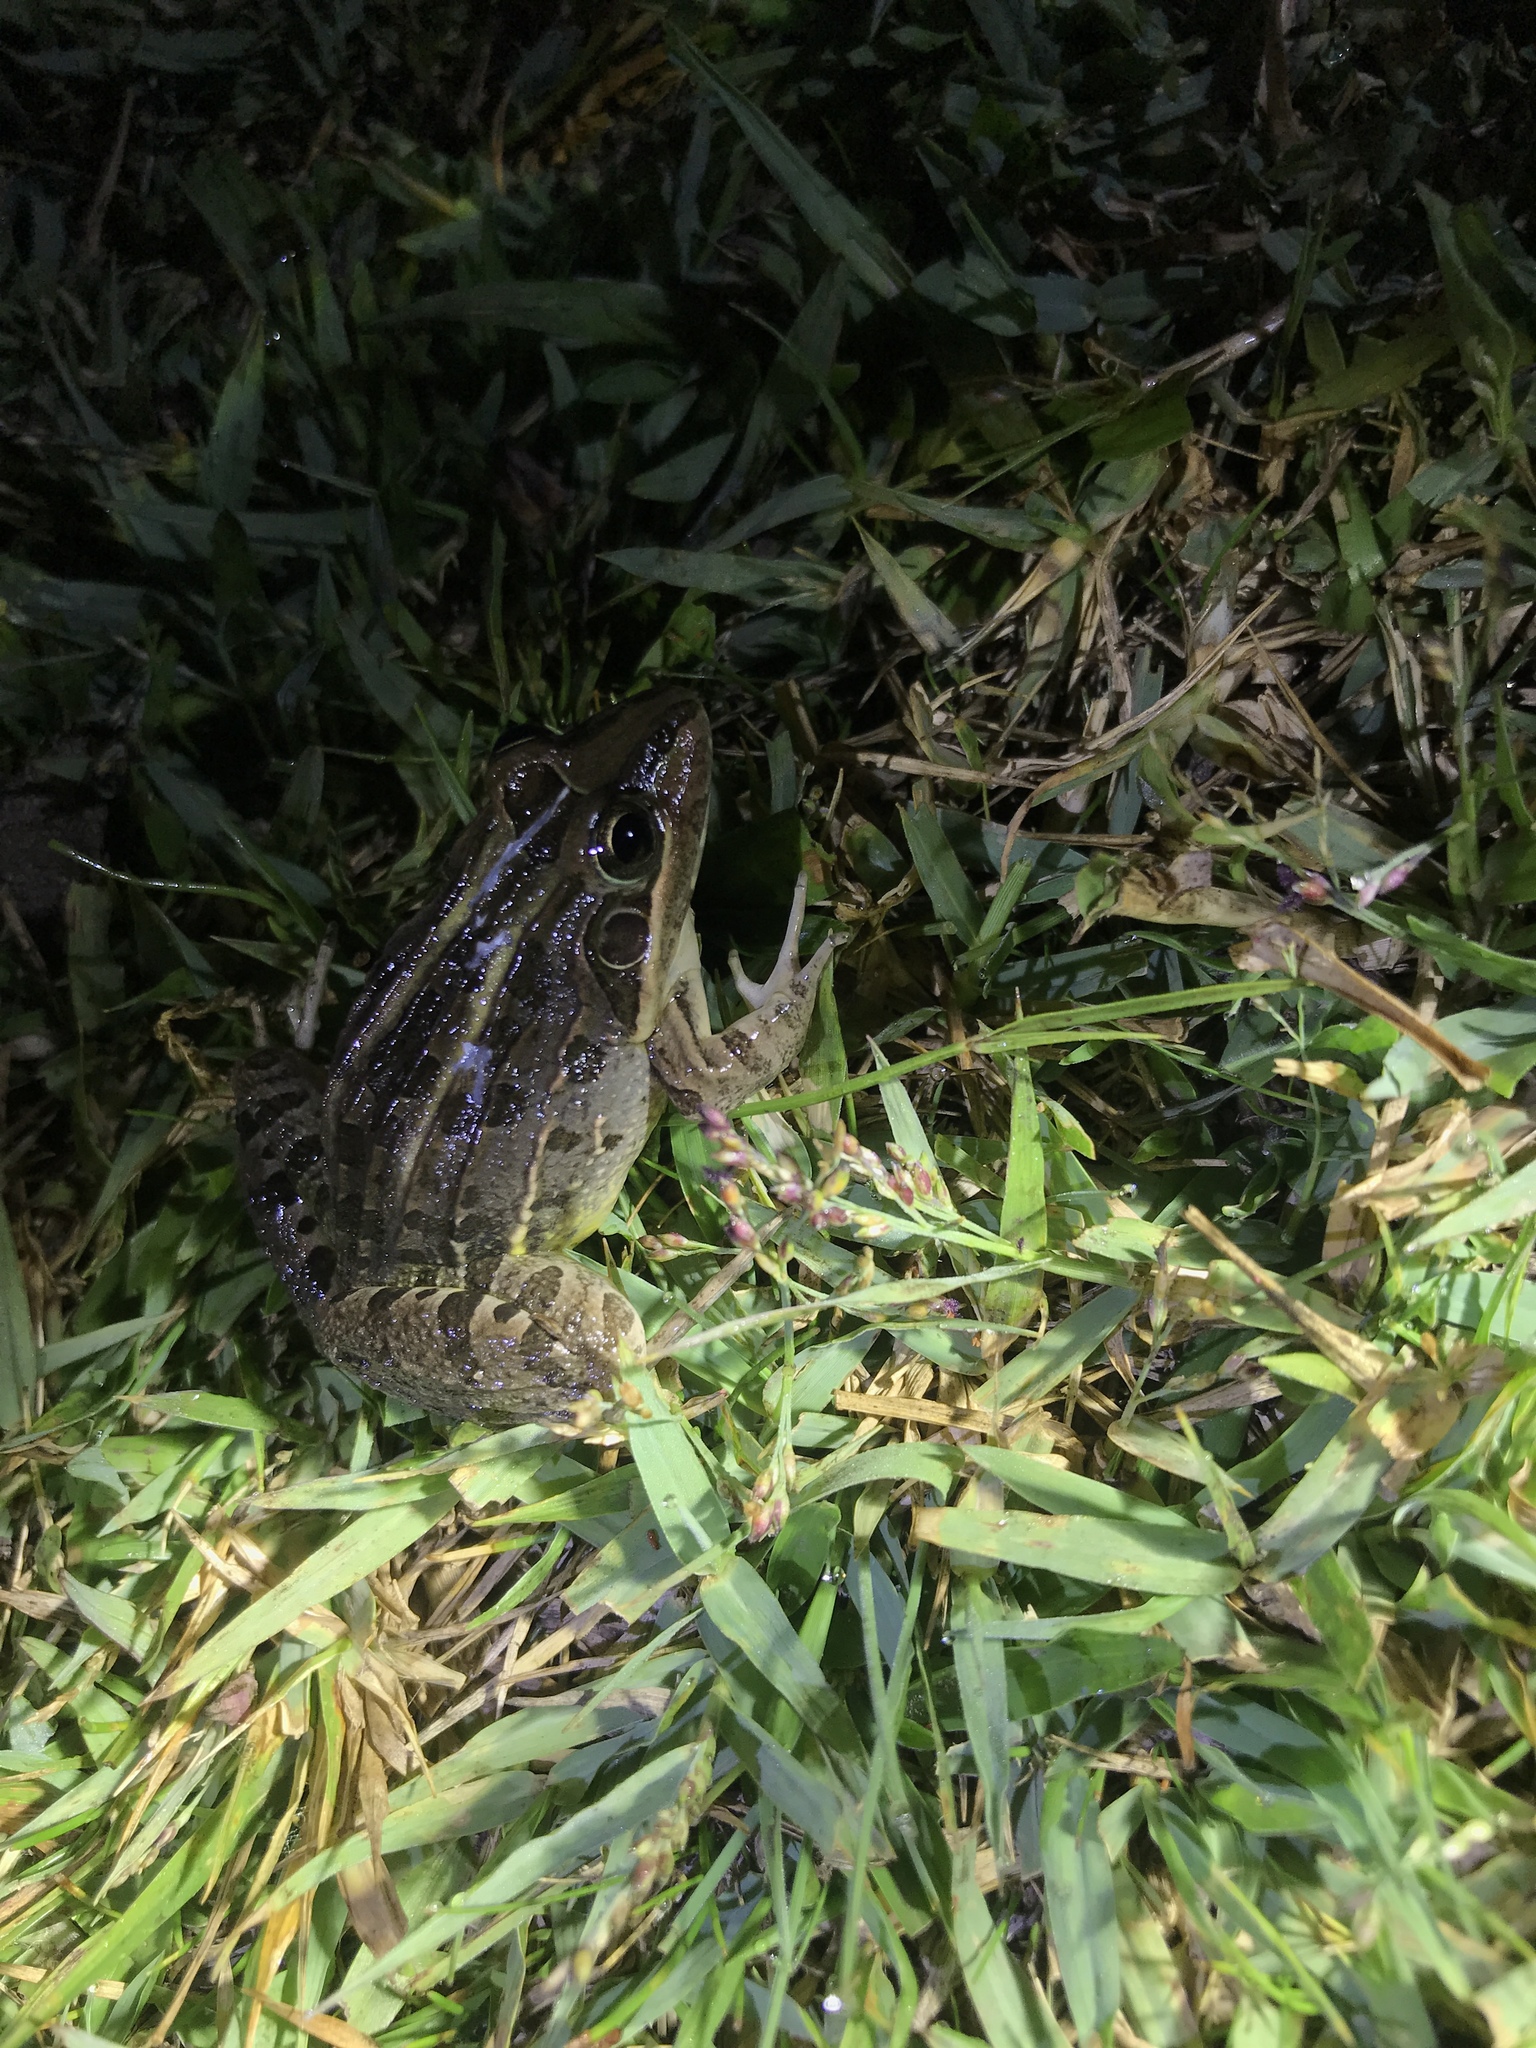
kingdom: Animalia
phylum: Chordata
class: Amphibia
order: Anura
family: Leptodactylidae
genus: Leptodactylus
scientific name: Leptodactylus luctator
